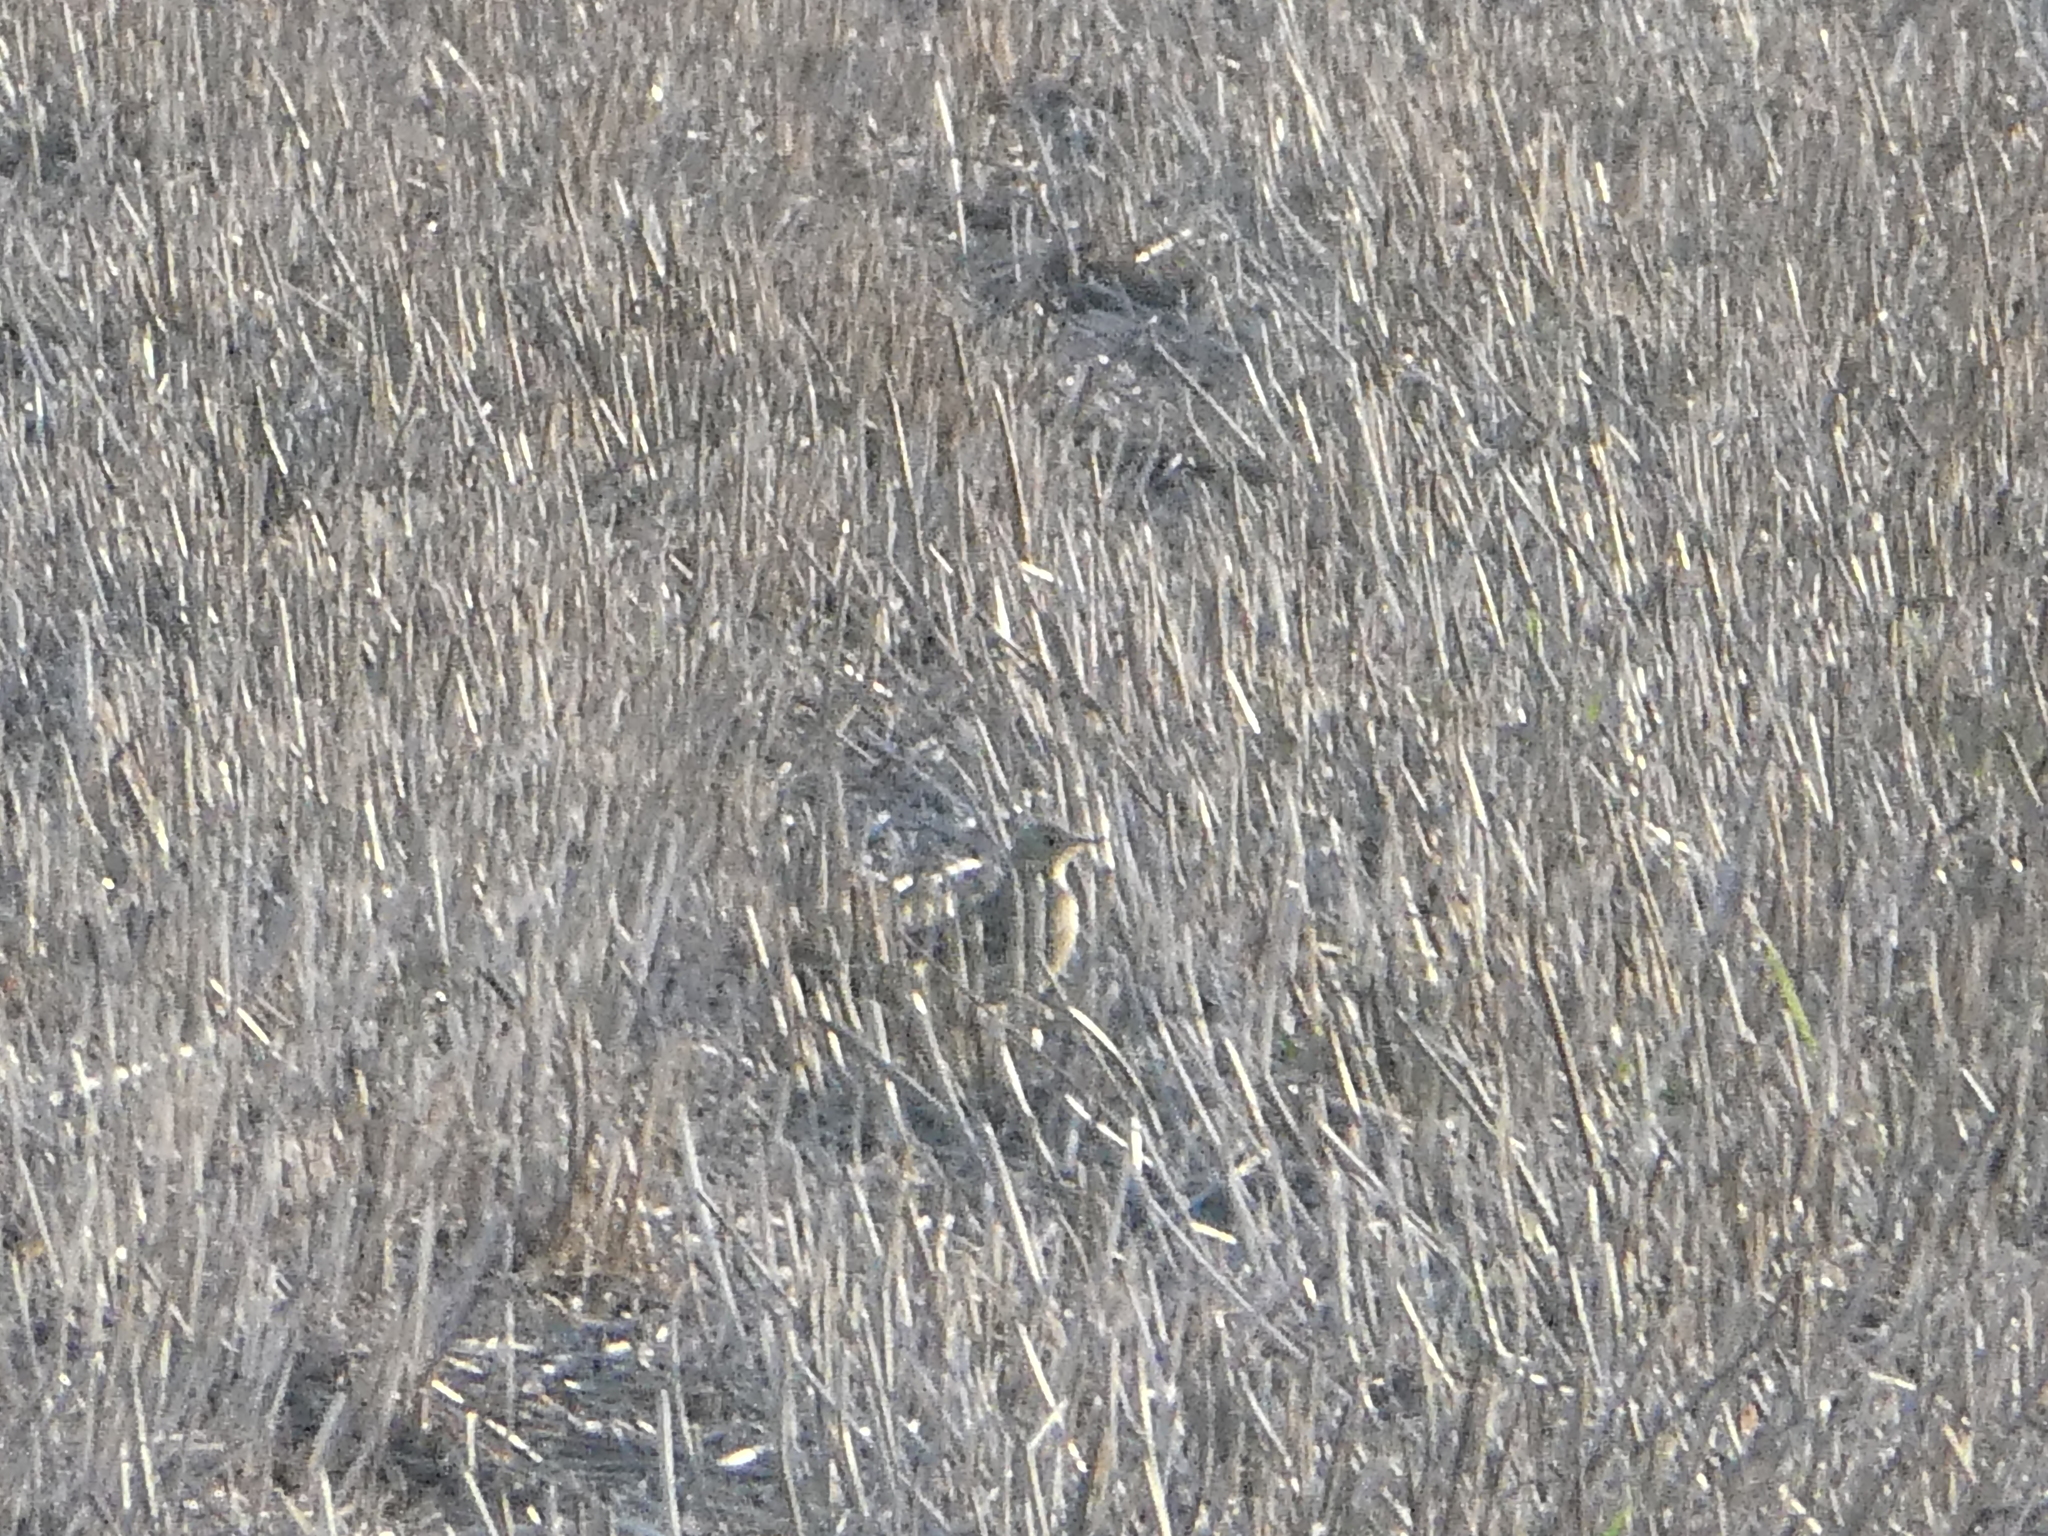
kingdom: Animalia
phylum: Chordata
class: Aves
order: Passeriformes
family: Motacillidae
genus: Anthus
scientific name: Anthus rubescens
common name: Buff-bellied pipit
